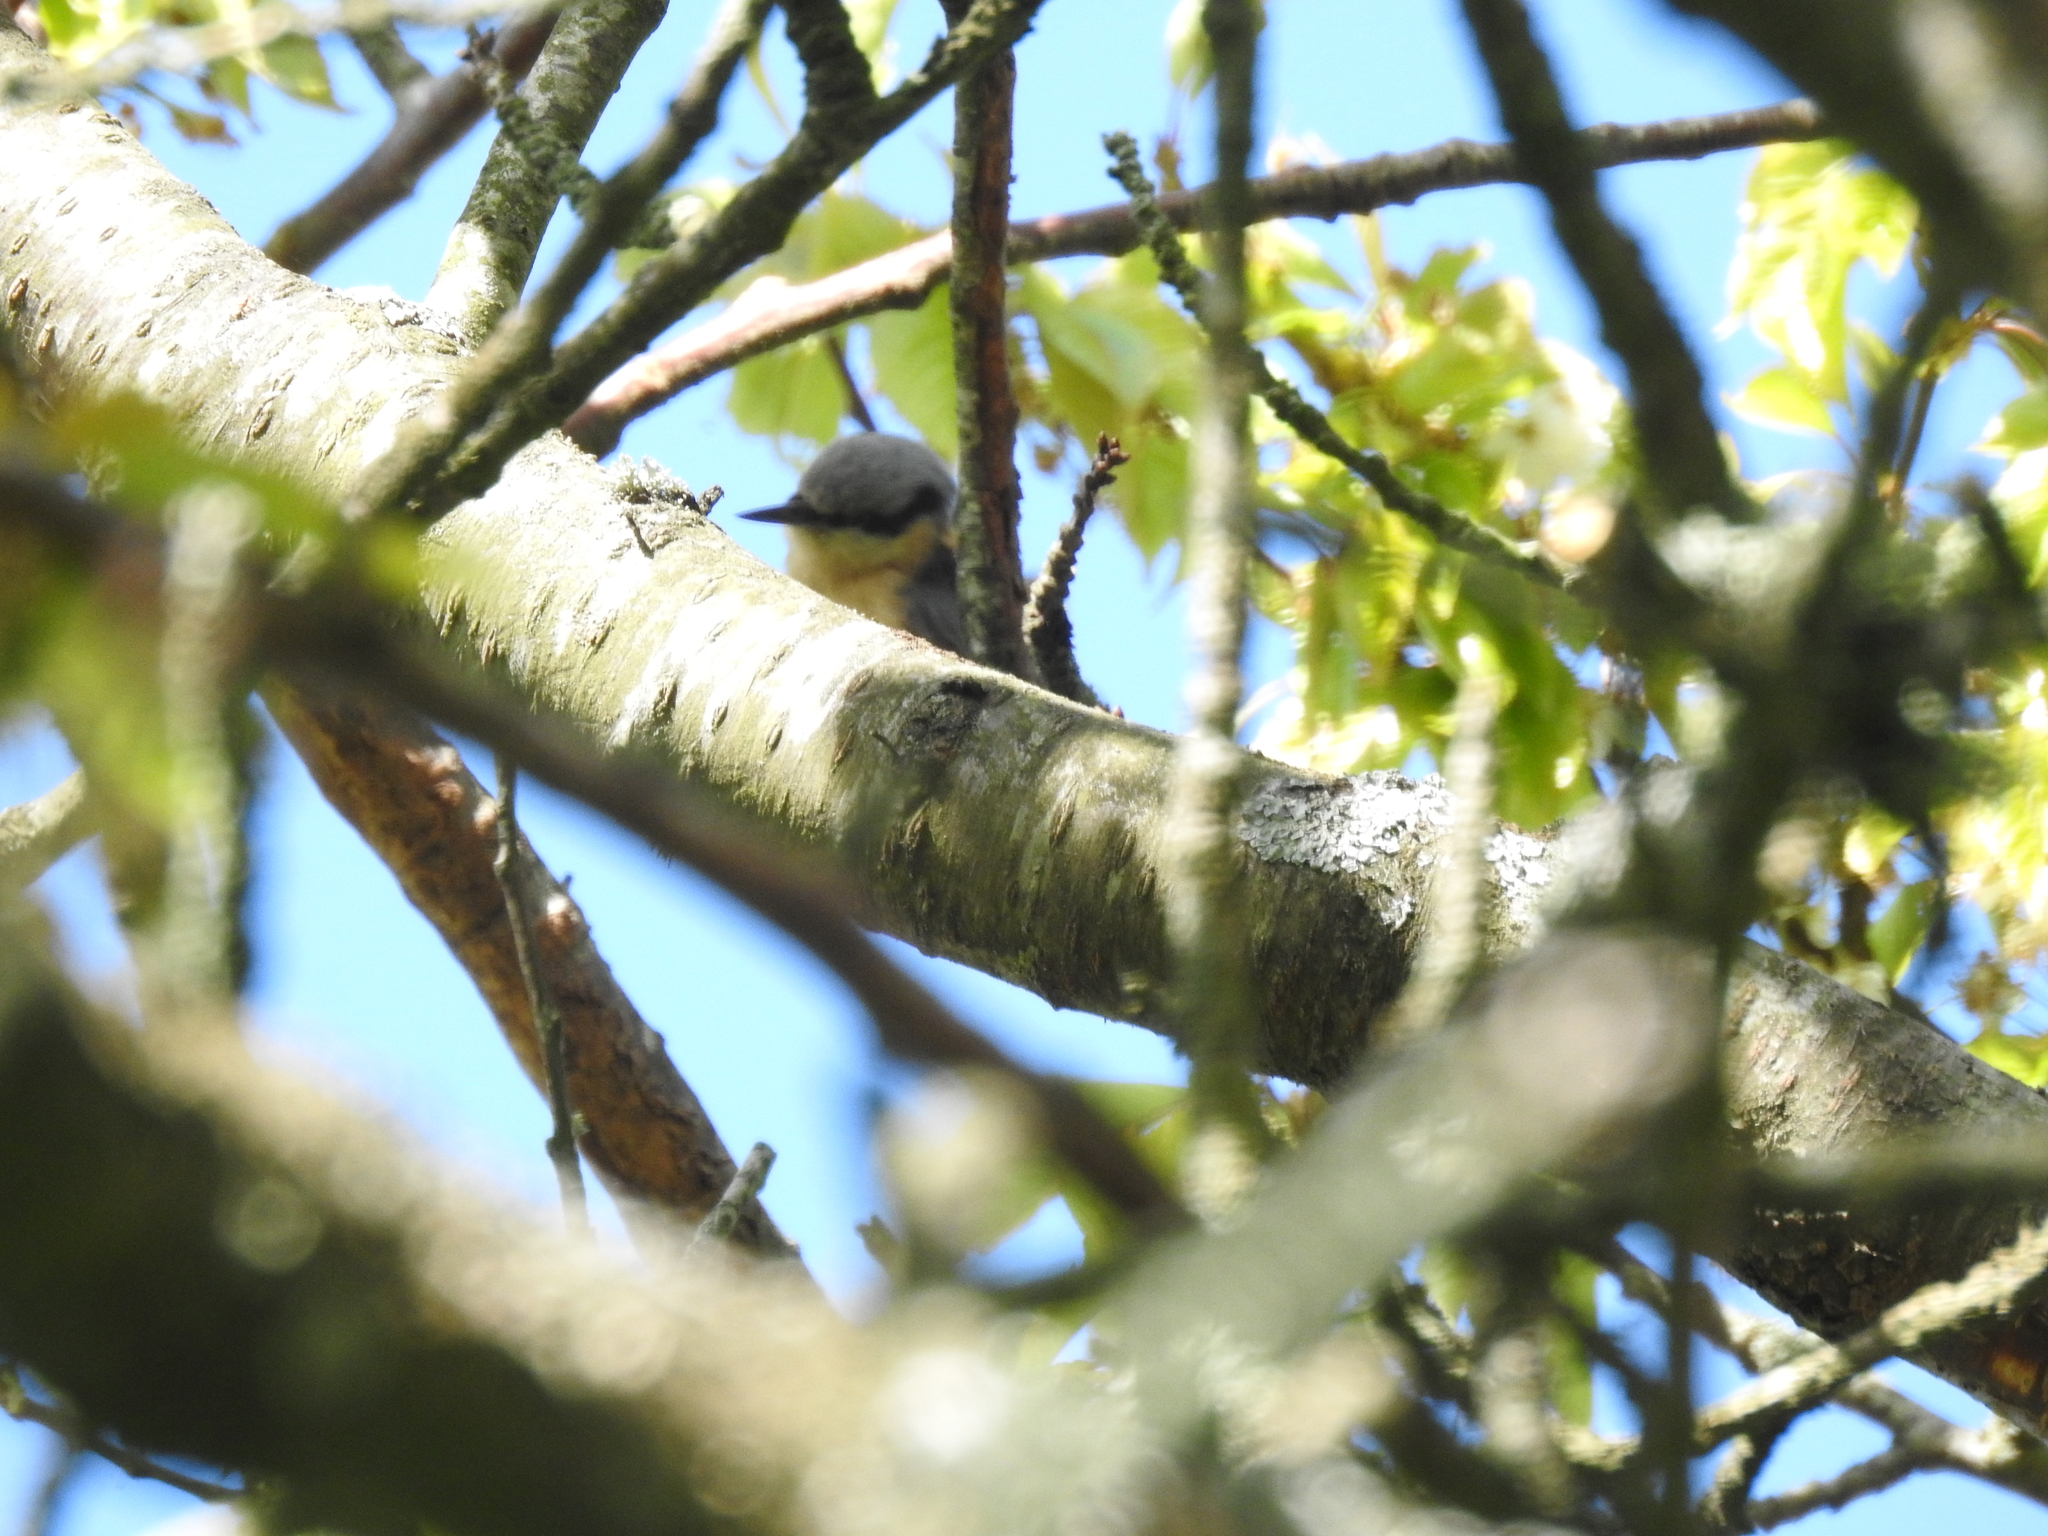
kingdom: Animalia
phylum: Chordata
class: Aves
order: Passeriformes
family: Sittidae
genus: Sitta
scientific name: Sitta europaea
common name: Eurasian nuthatch
